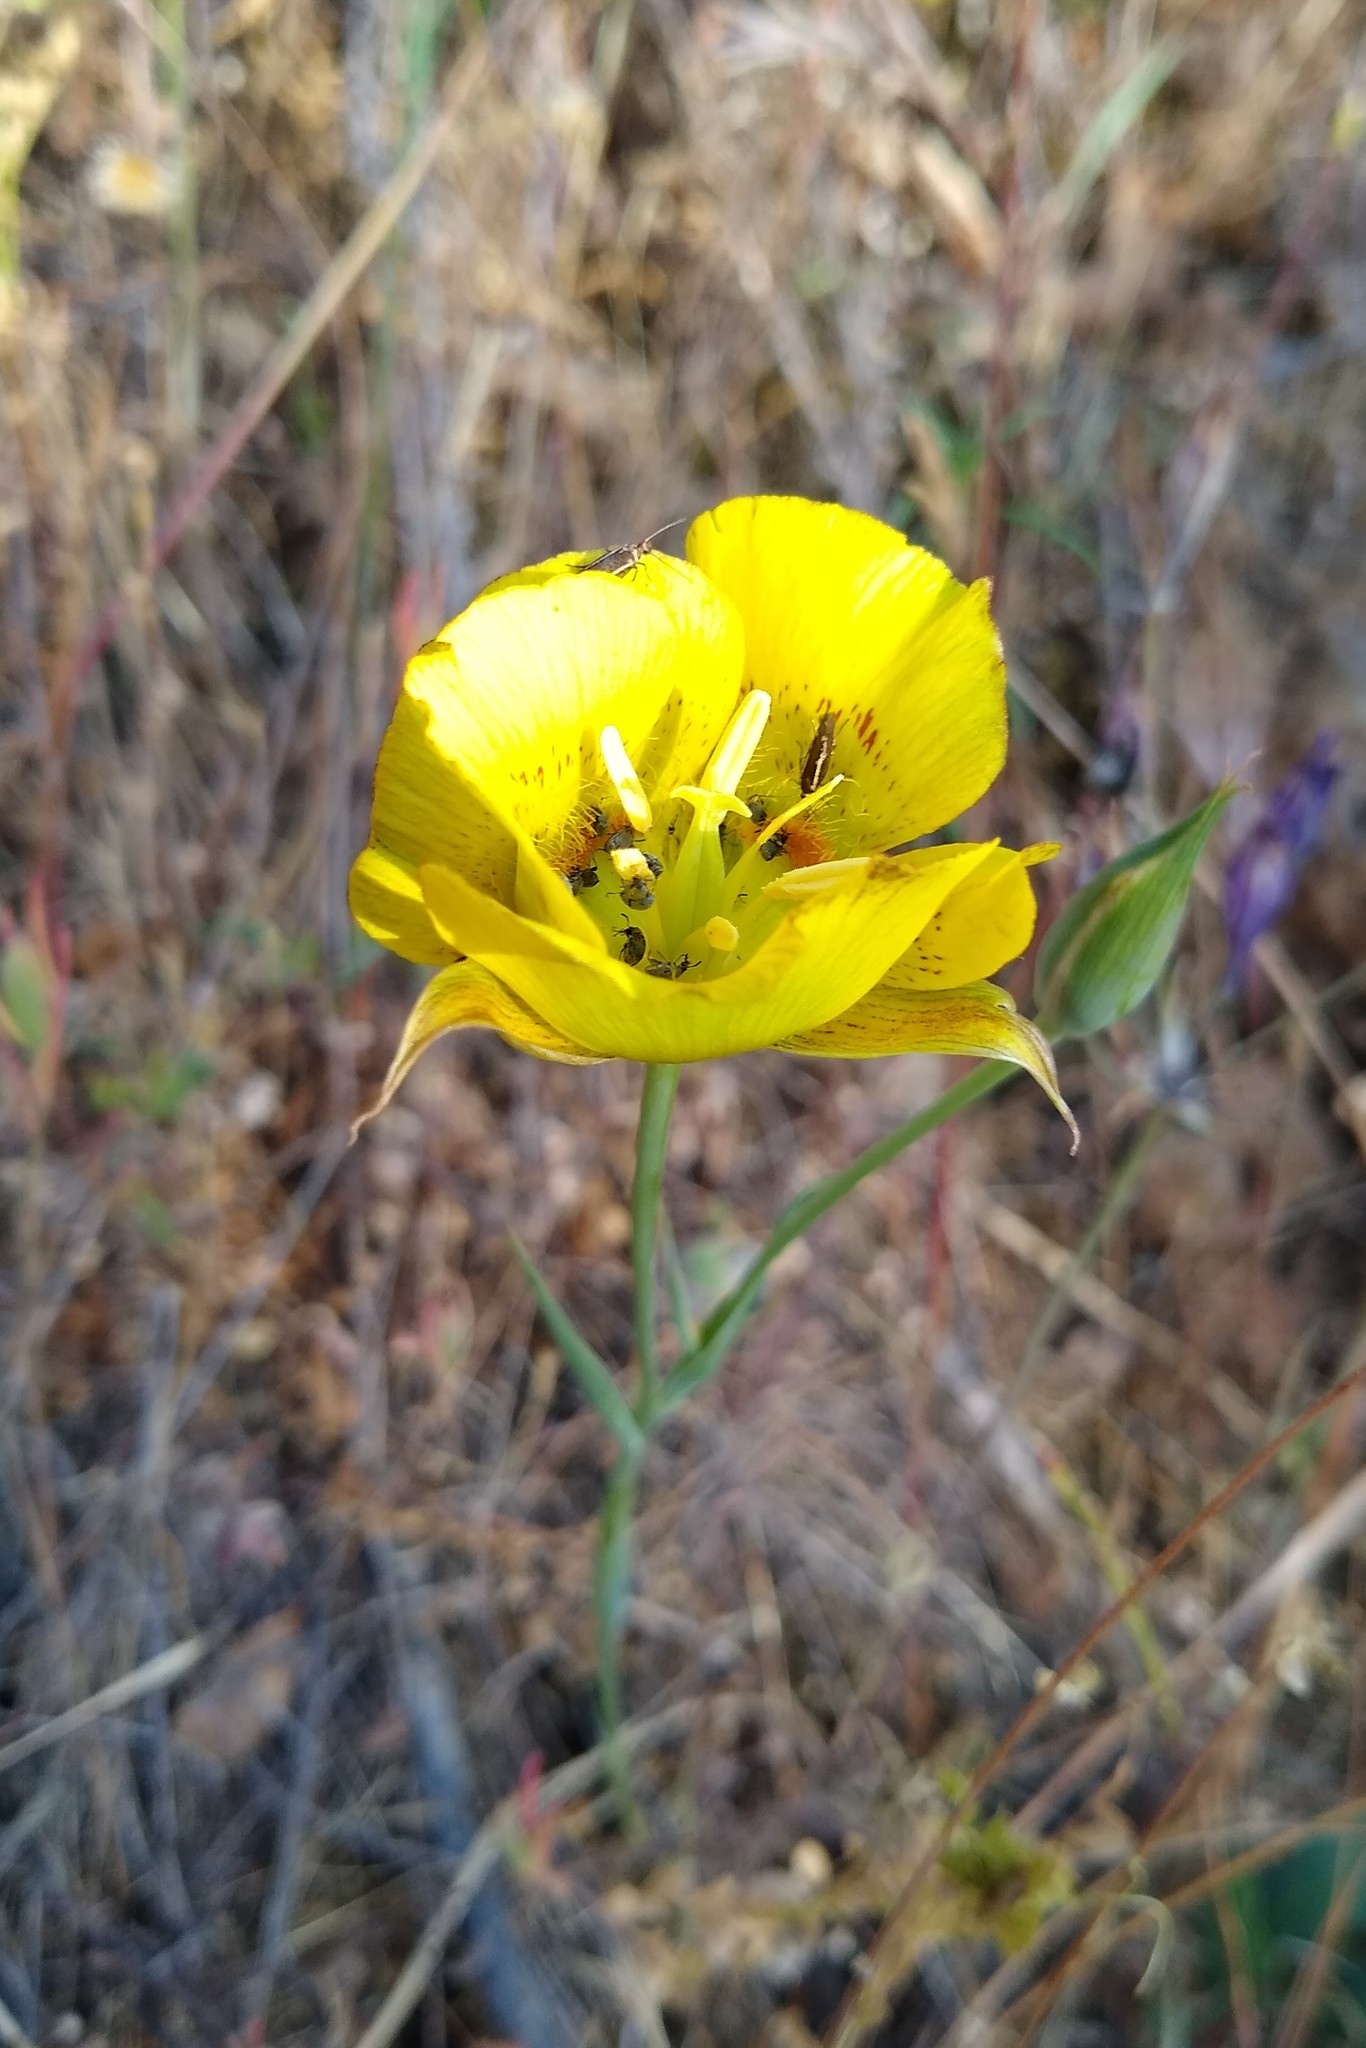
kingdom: Plantae
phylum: Tracheophyta
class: Liliopsida
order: Liliales
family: Liliaceae
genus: Calochortus
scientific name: Calochortus luteus
